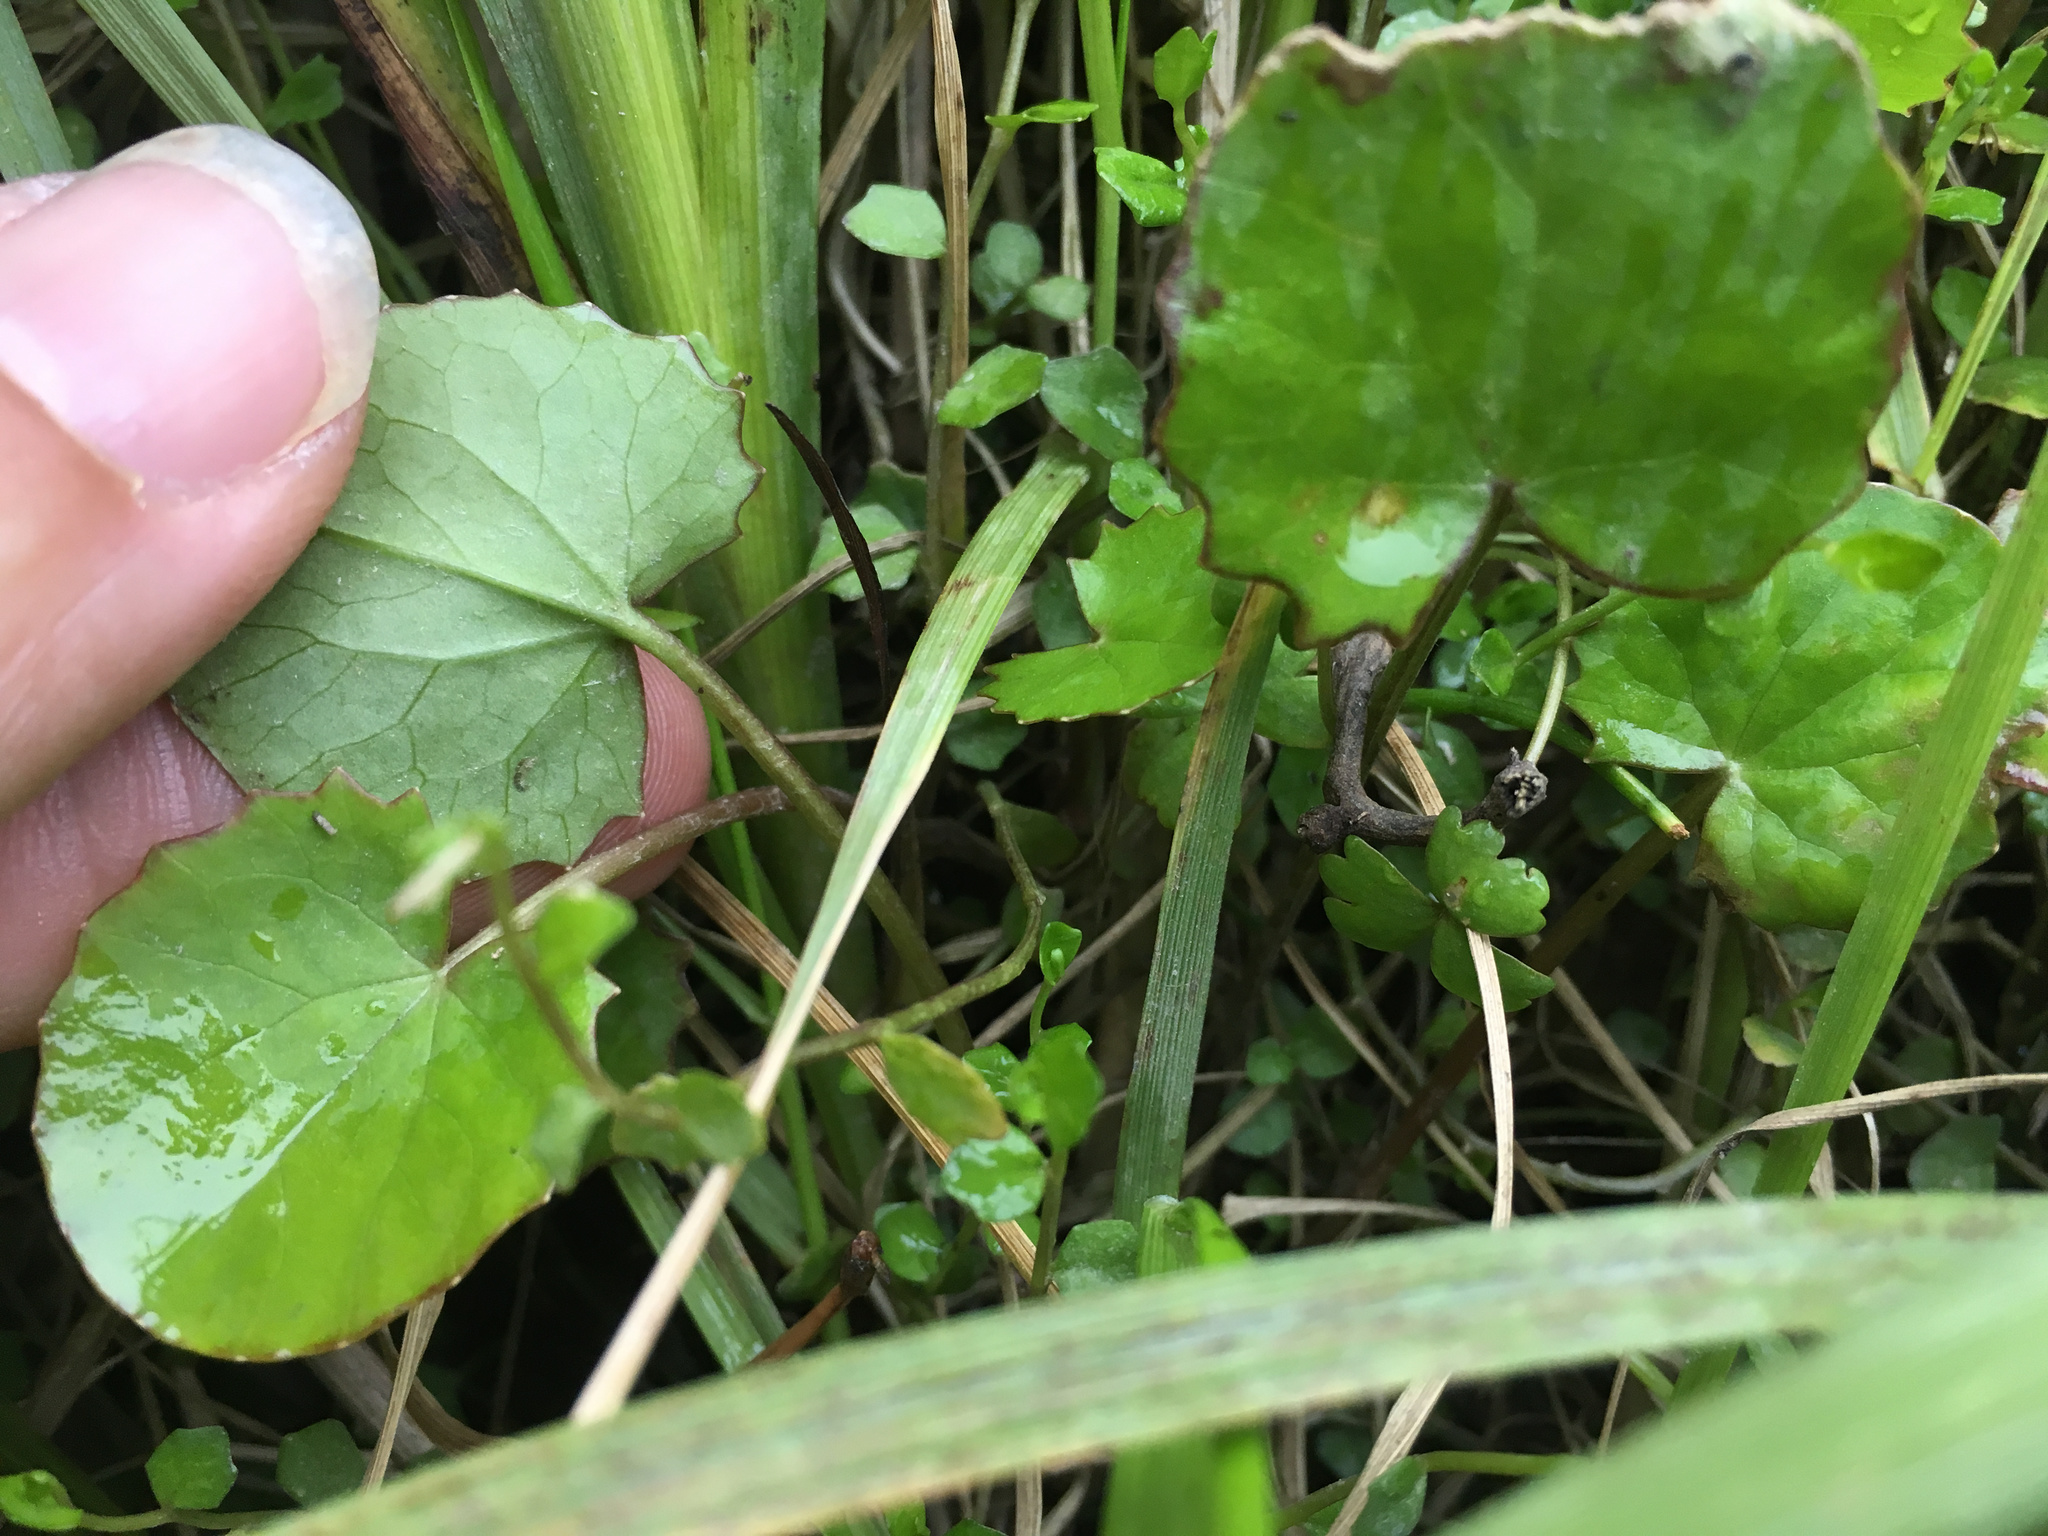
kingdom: Plantae
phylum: Tracheophyta
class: Magnoliopsida
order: Apiales
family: Apiaceae
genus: Centella
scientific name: Centella uniflora
